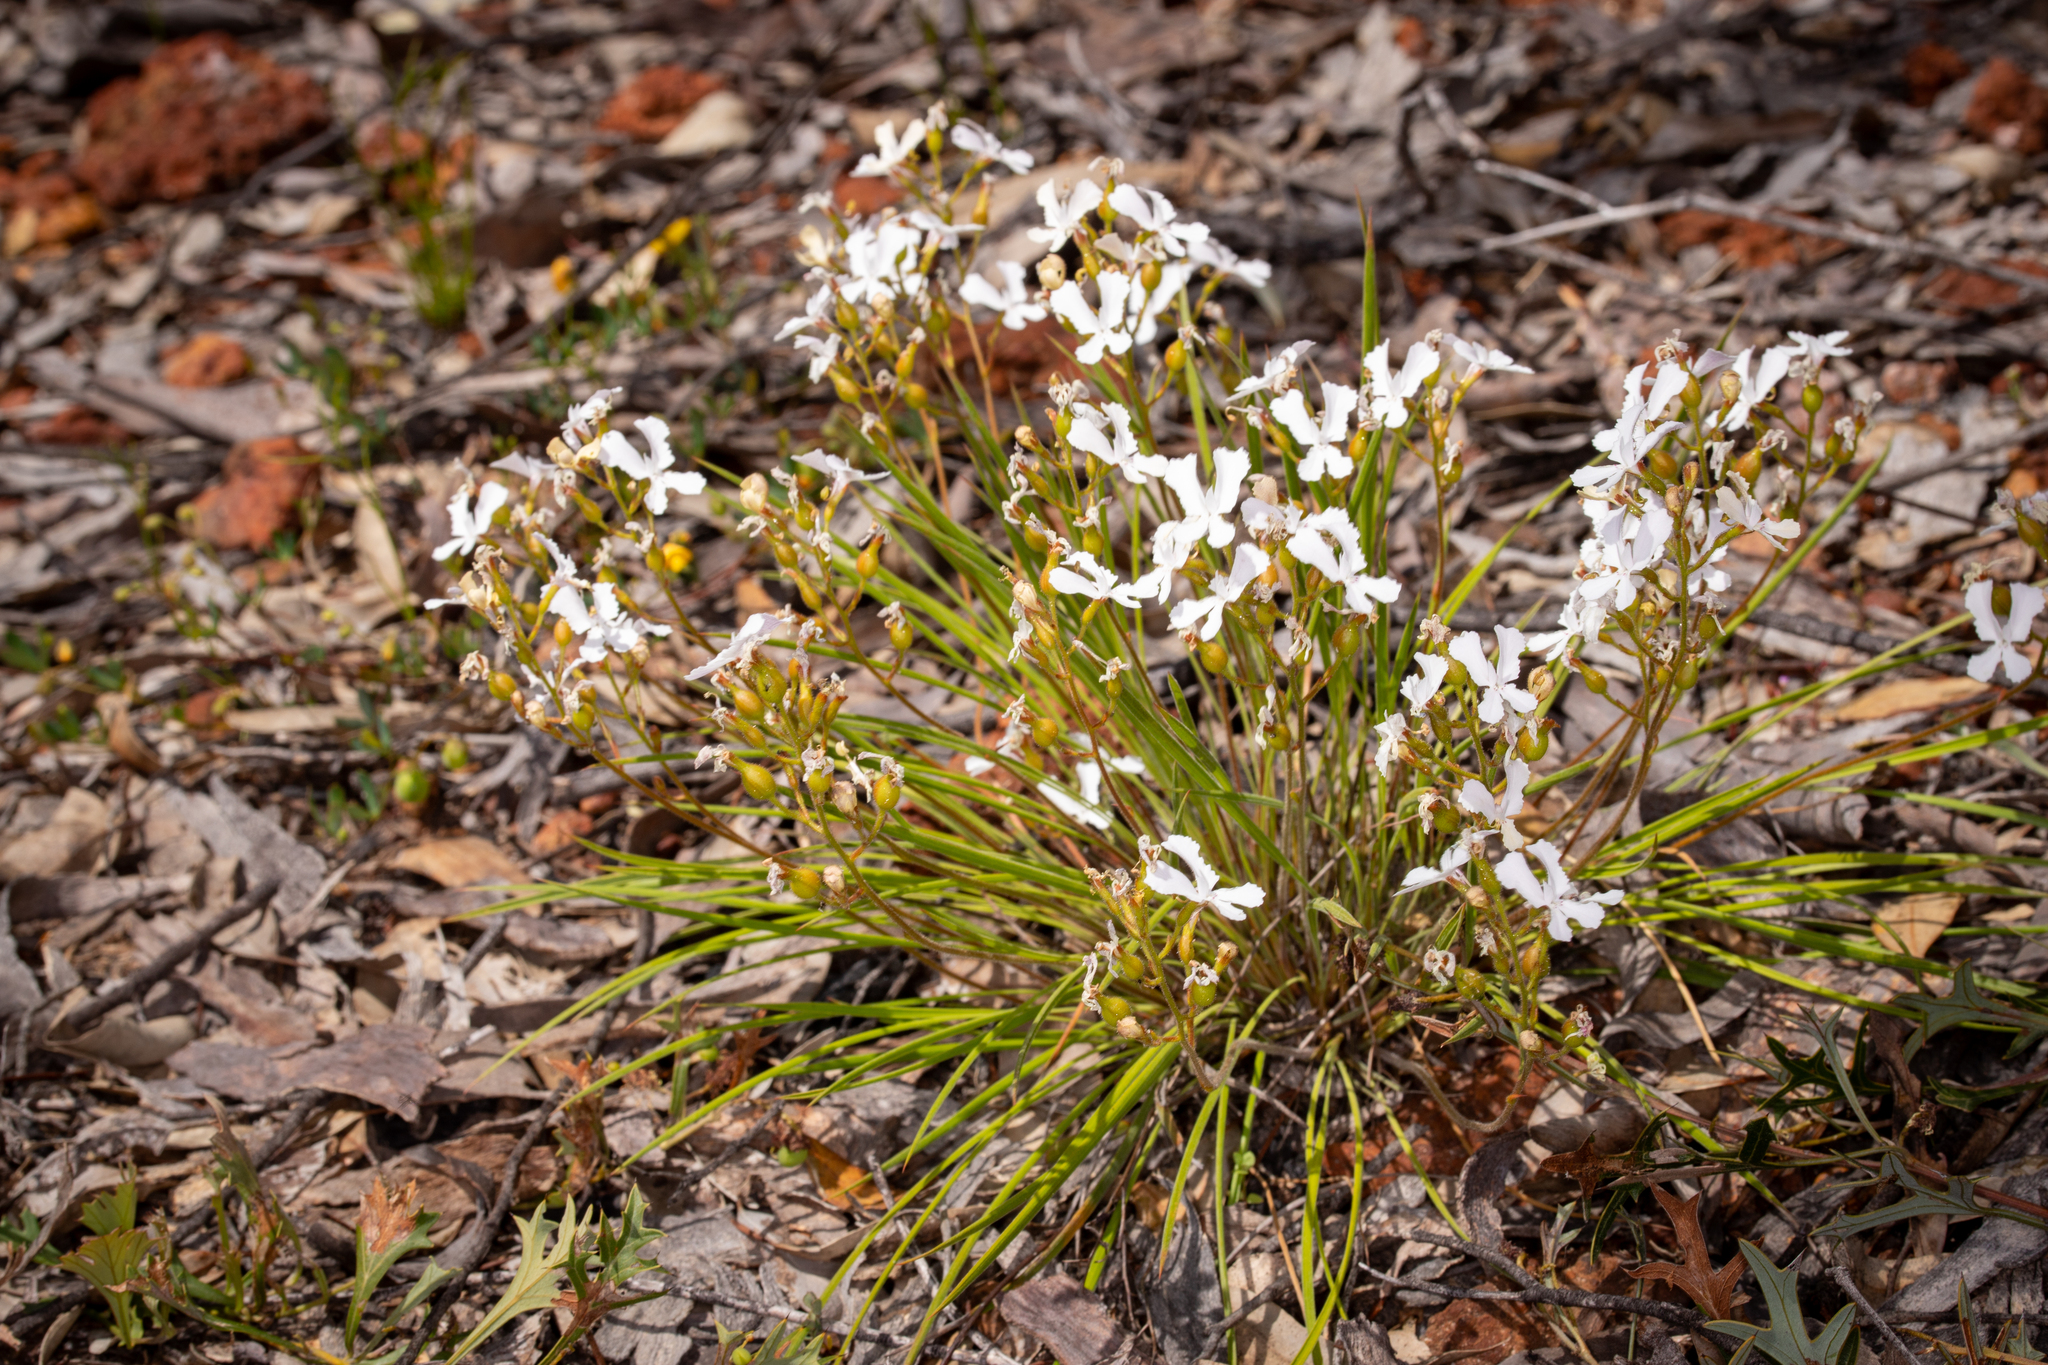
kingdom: Plantae
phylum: Tracheophyta
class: Magnoliopsida
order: Asterales
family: Stylidiaceae
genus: Stylidium
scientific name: Stylidium caricifolium
